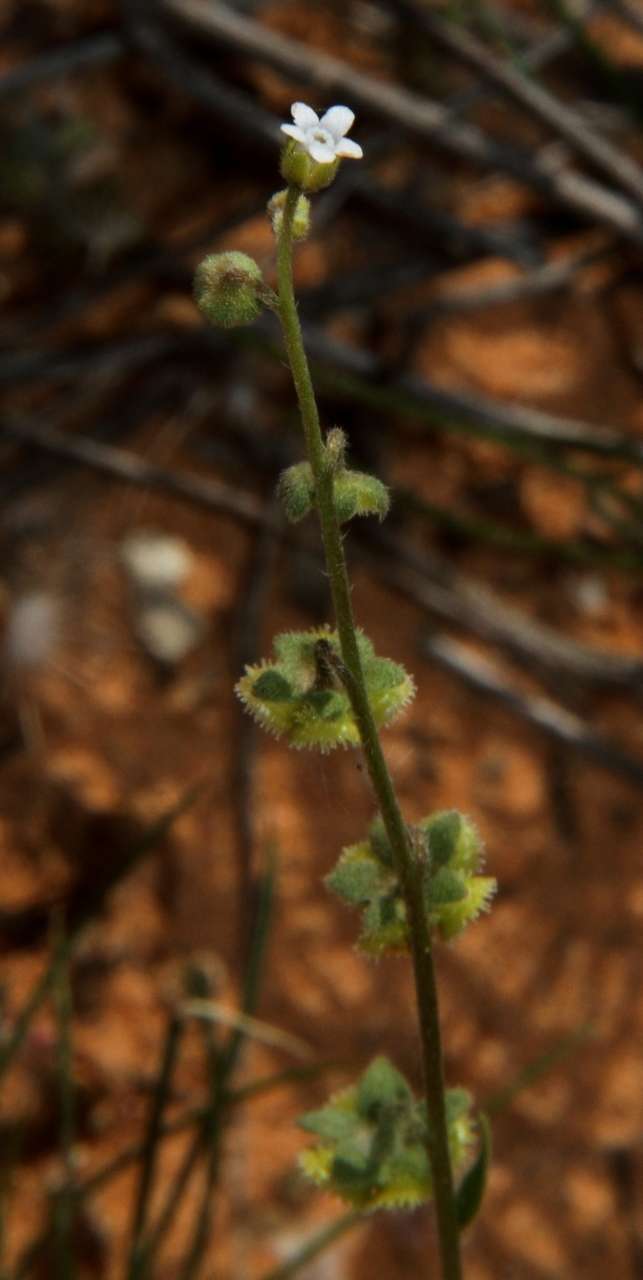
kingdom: Plantae
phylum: Tracheophyta
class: Magnoliopsida
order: Boraginales
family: Boraginaceae
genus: Cynoglossum
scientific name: Cynoglossum australe
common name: Australian hound's-tongue
